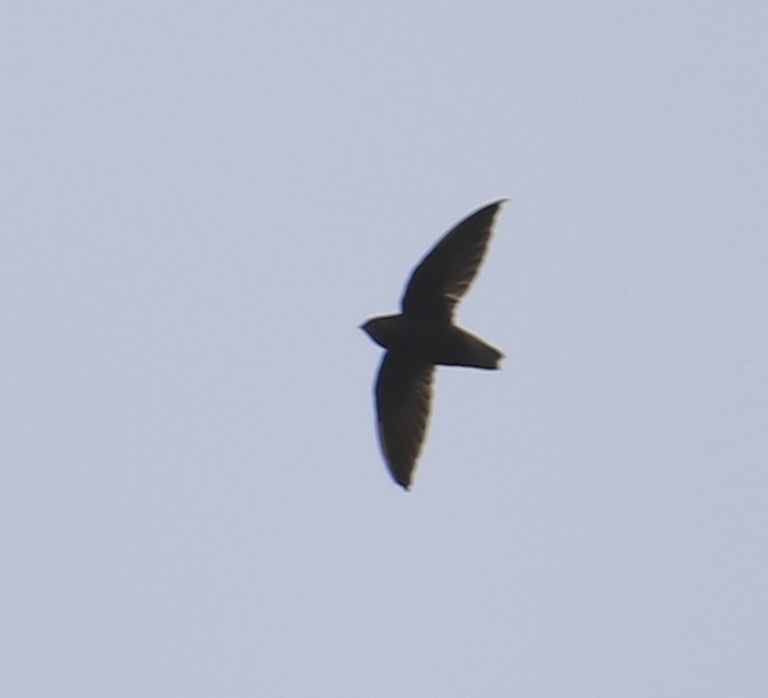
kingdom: Animalia
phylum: Chordata
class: Aves
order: Apodiformes
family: Apodidae
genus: Chaetura
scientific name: Chaetura brachyura
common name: Short-tailed swift
